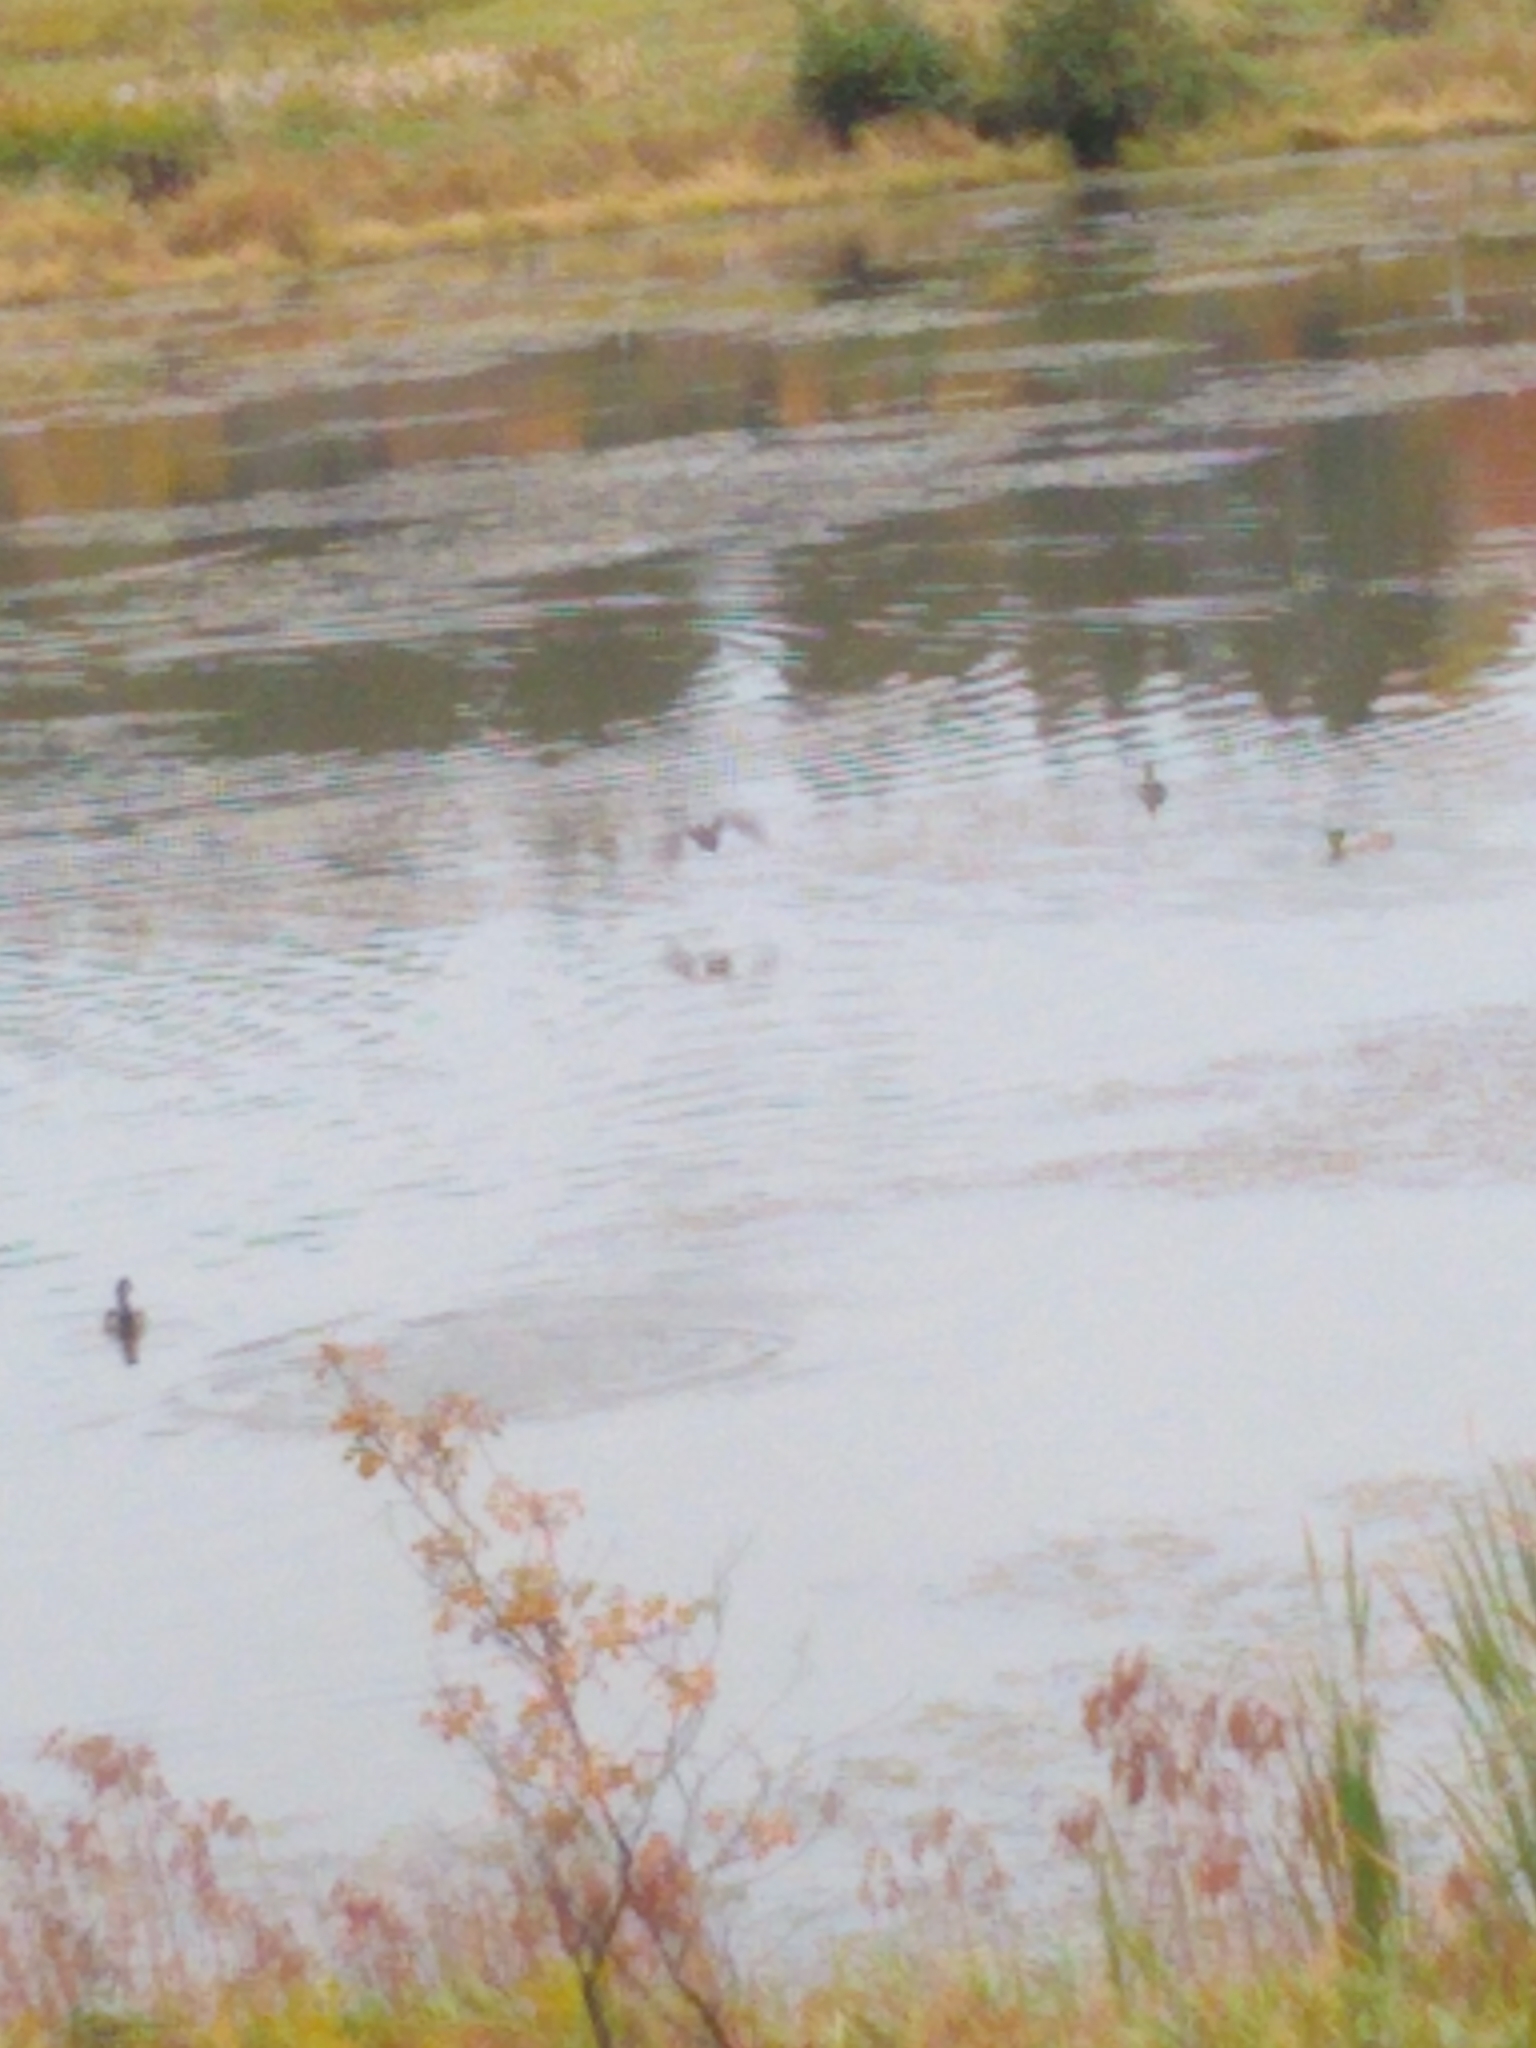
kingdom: Animalia
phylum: Chordata
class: Aves
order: Anseriformes
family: Anatidae
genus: Anas
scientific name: Anas platyrhynchos
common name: Mallard
